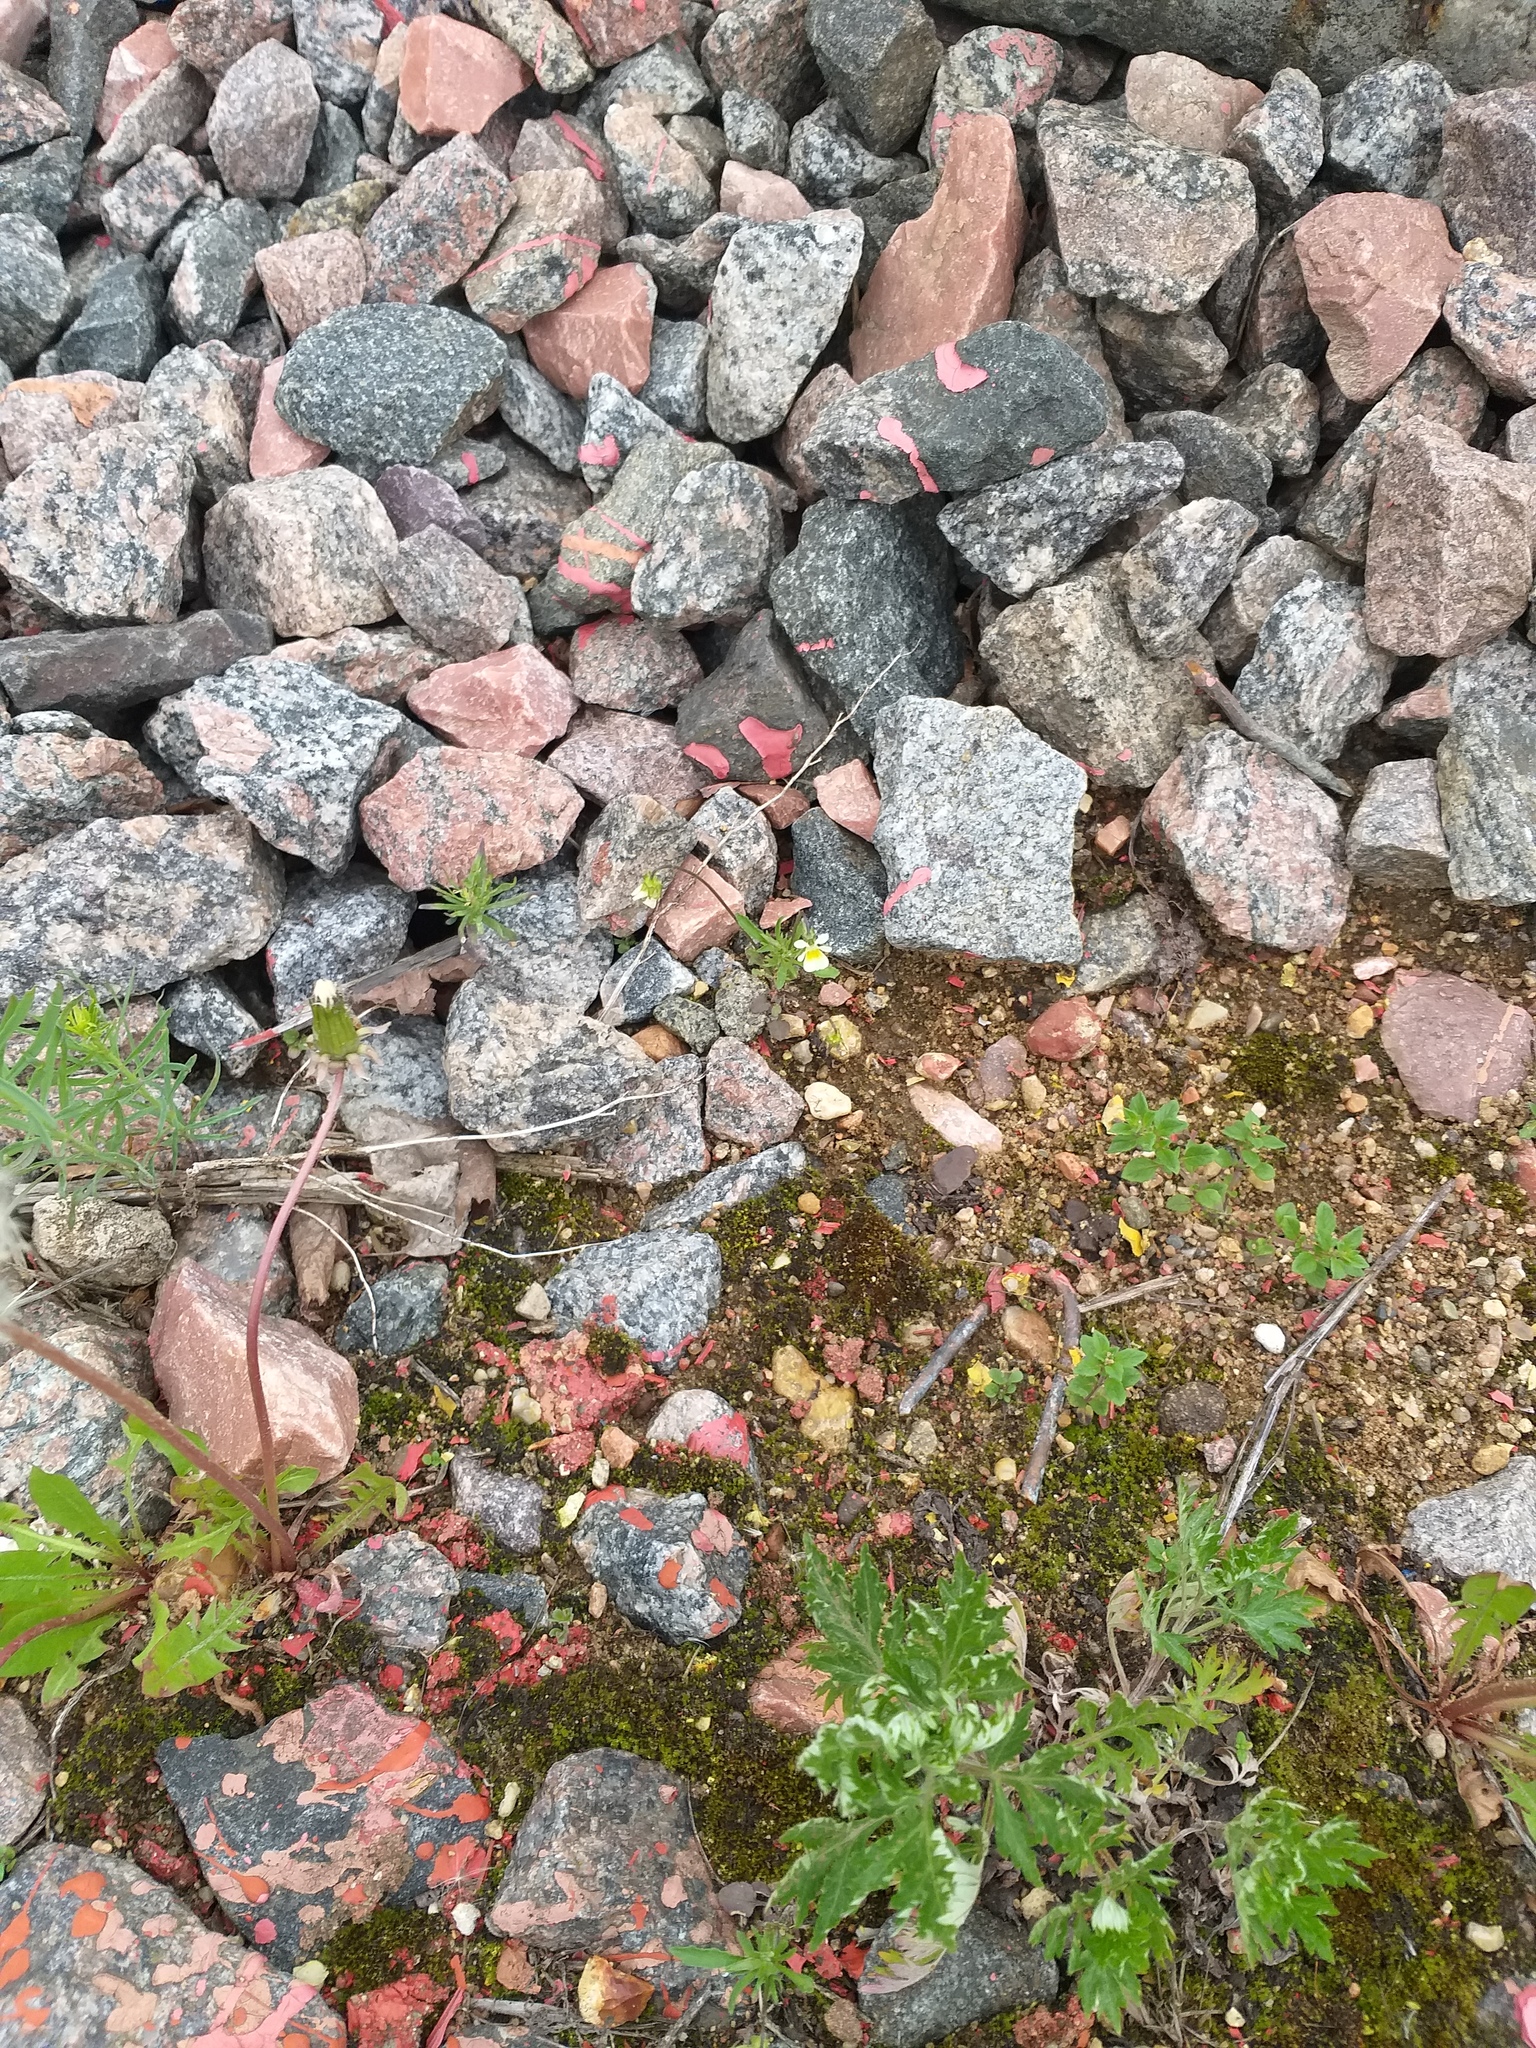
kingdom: Plantae
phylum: Tracheophyta
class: Magnoliopsida
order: Malpighiales
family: Violaceae
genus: Viola
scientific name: Viola arvensis
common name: Field pansy
